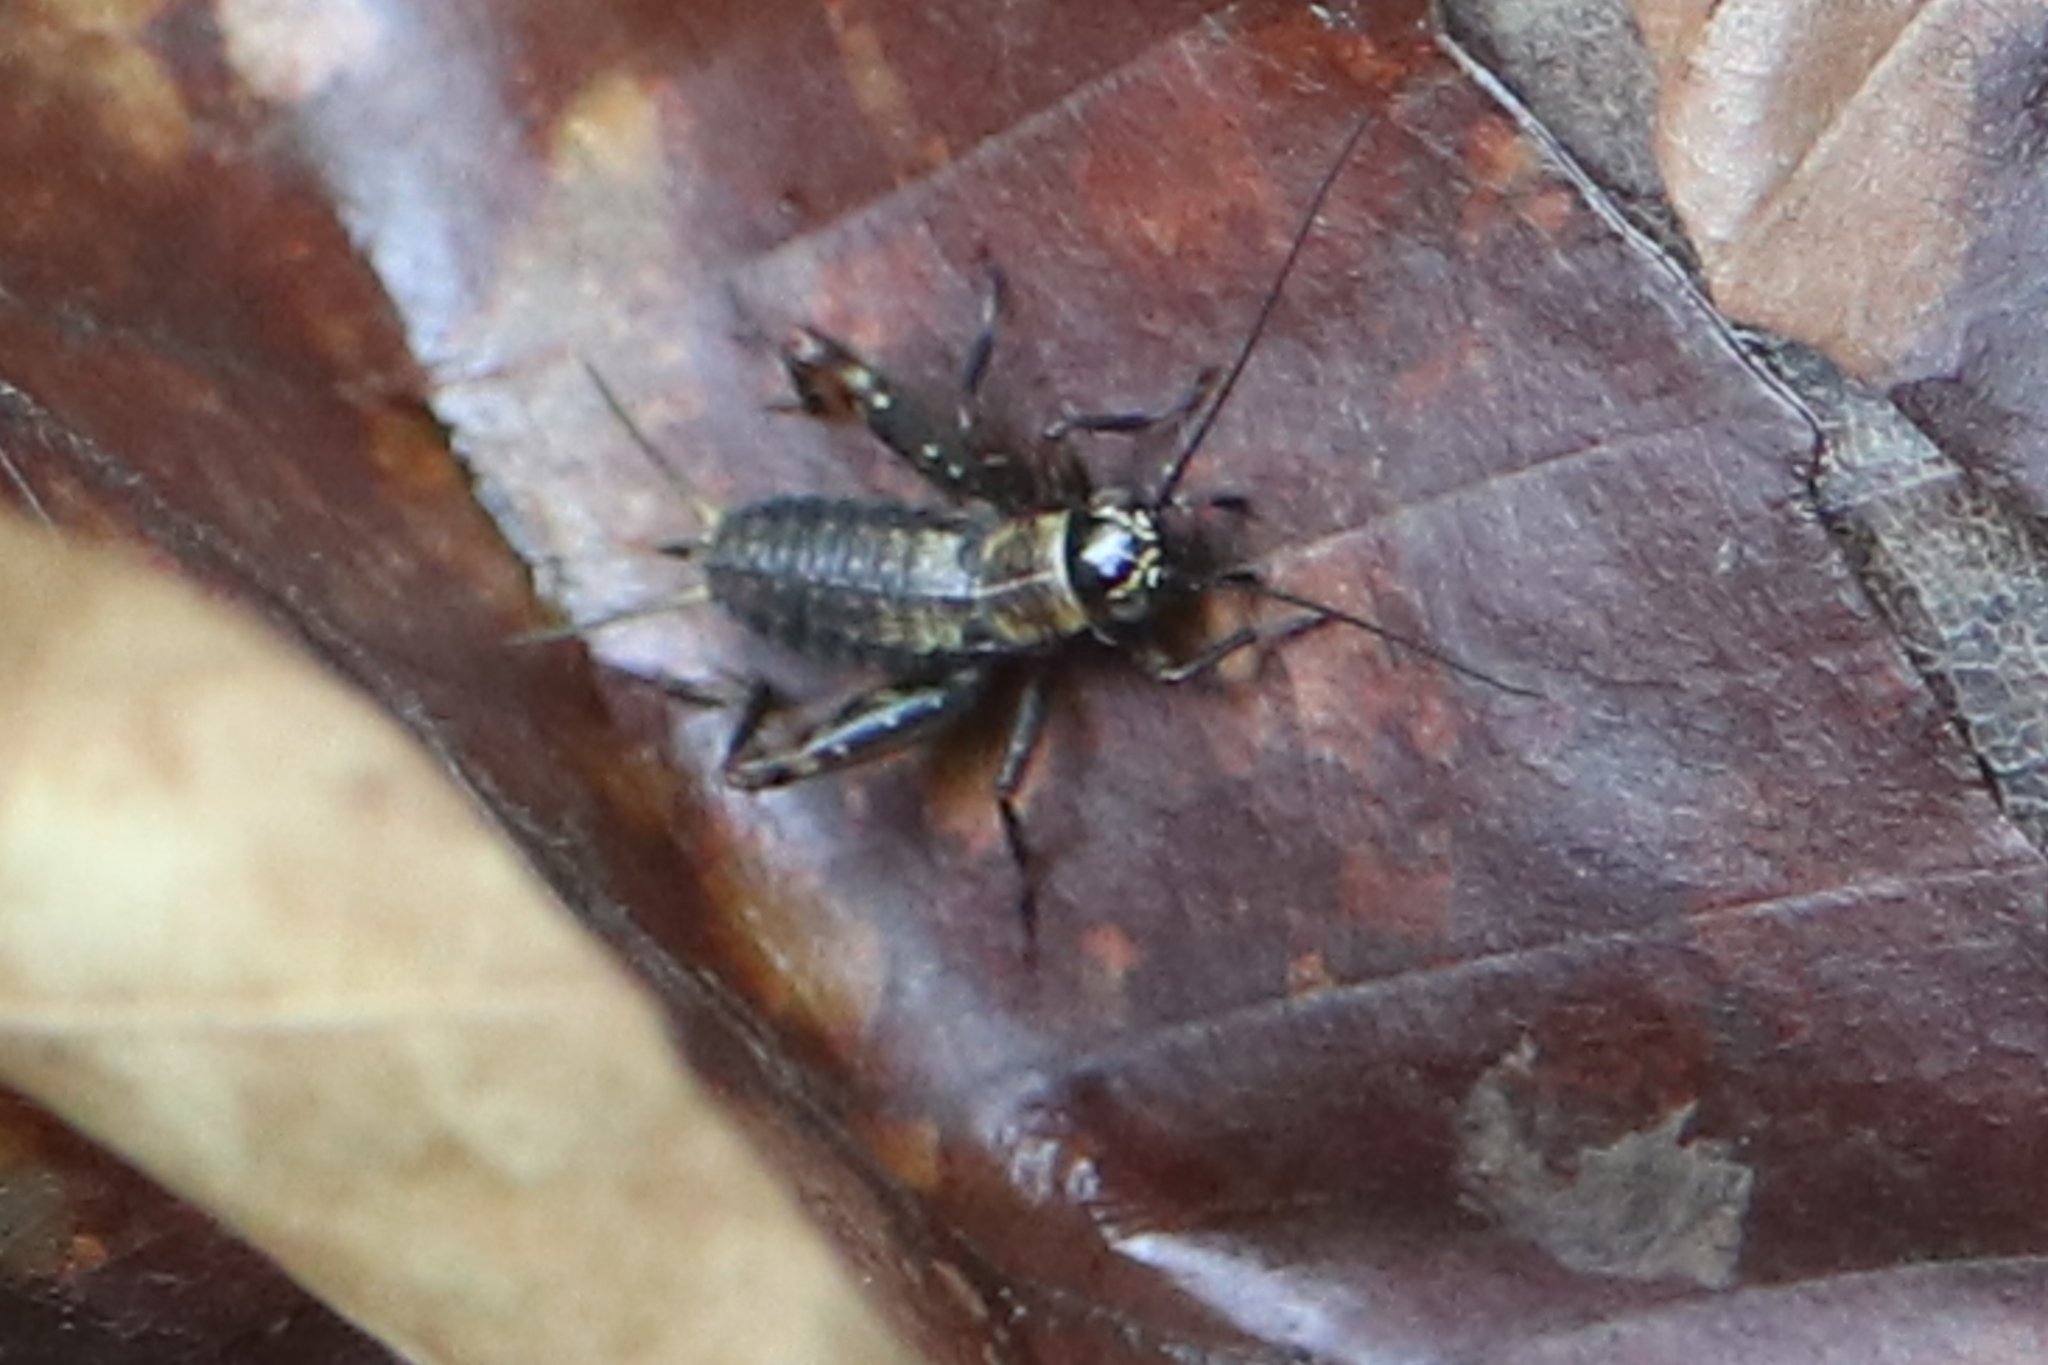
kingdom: Animalia
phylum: Arthropoda
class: Insecta
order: Orthoptera
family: Trigonidiidae
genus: Nemobius
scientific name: Nemobius sylvestris
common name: Wood-cricket
